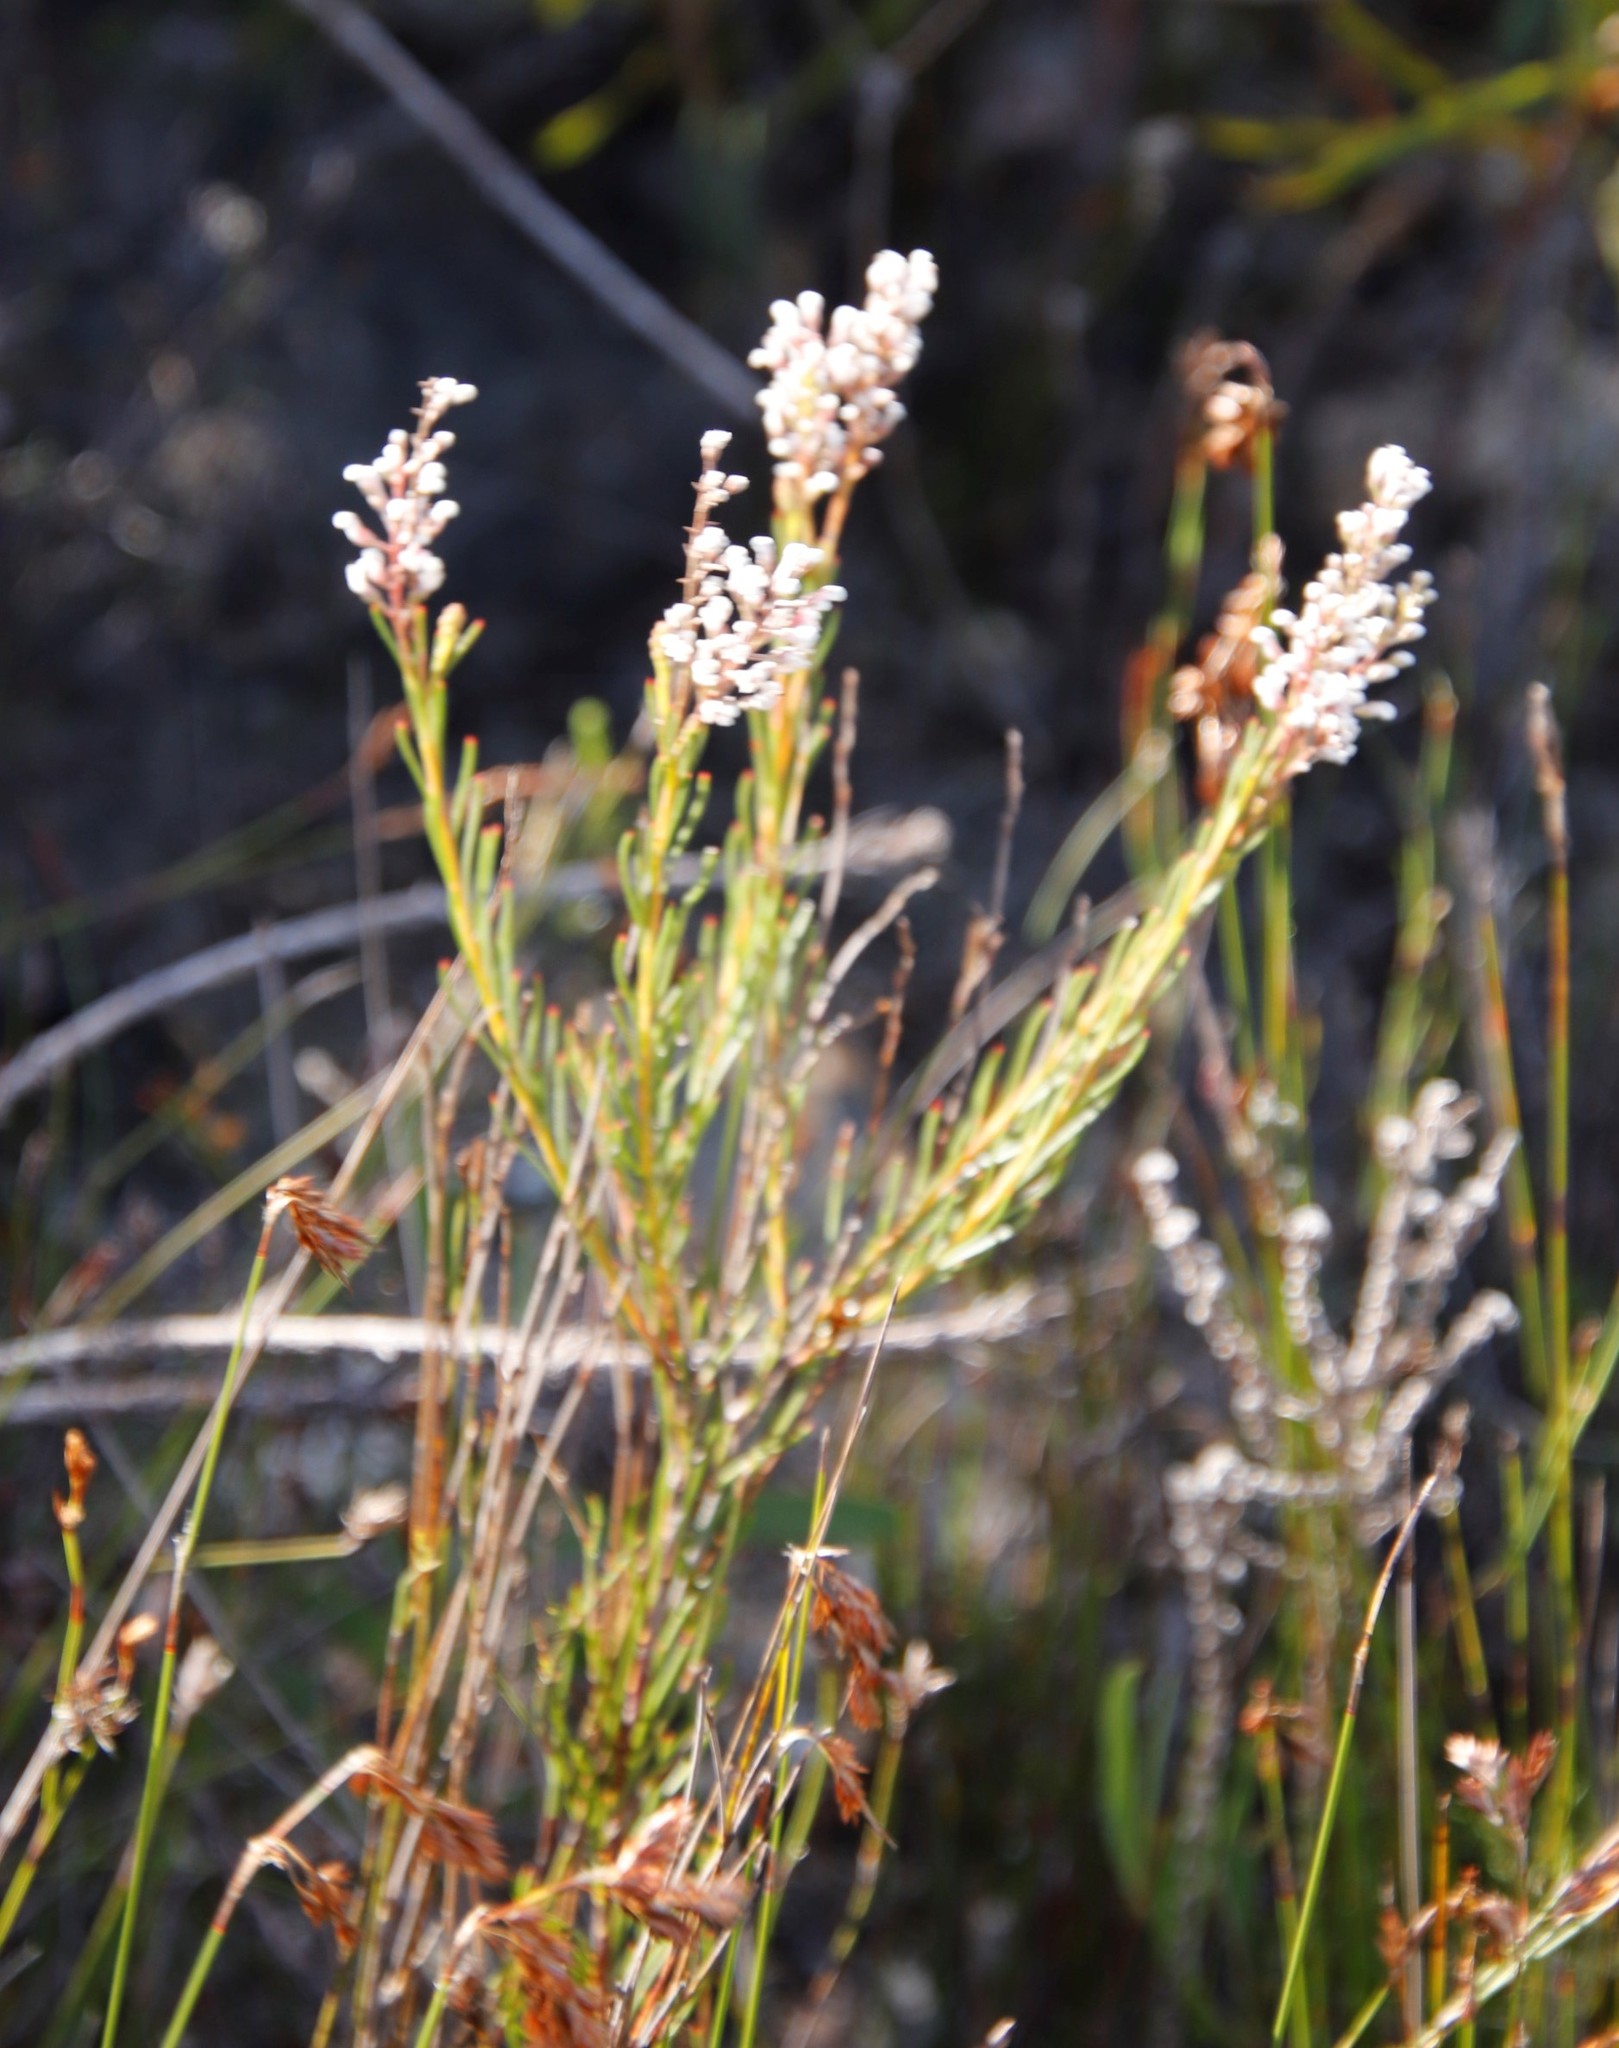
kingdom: Plantae
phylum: Tracheophyta
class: Magnoliopsida
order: Proteales
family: Proteaceae
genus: Spatalla
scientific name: Spatalla racemosa
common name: Lax-stalked spoon
